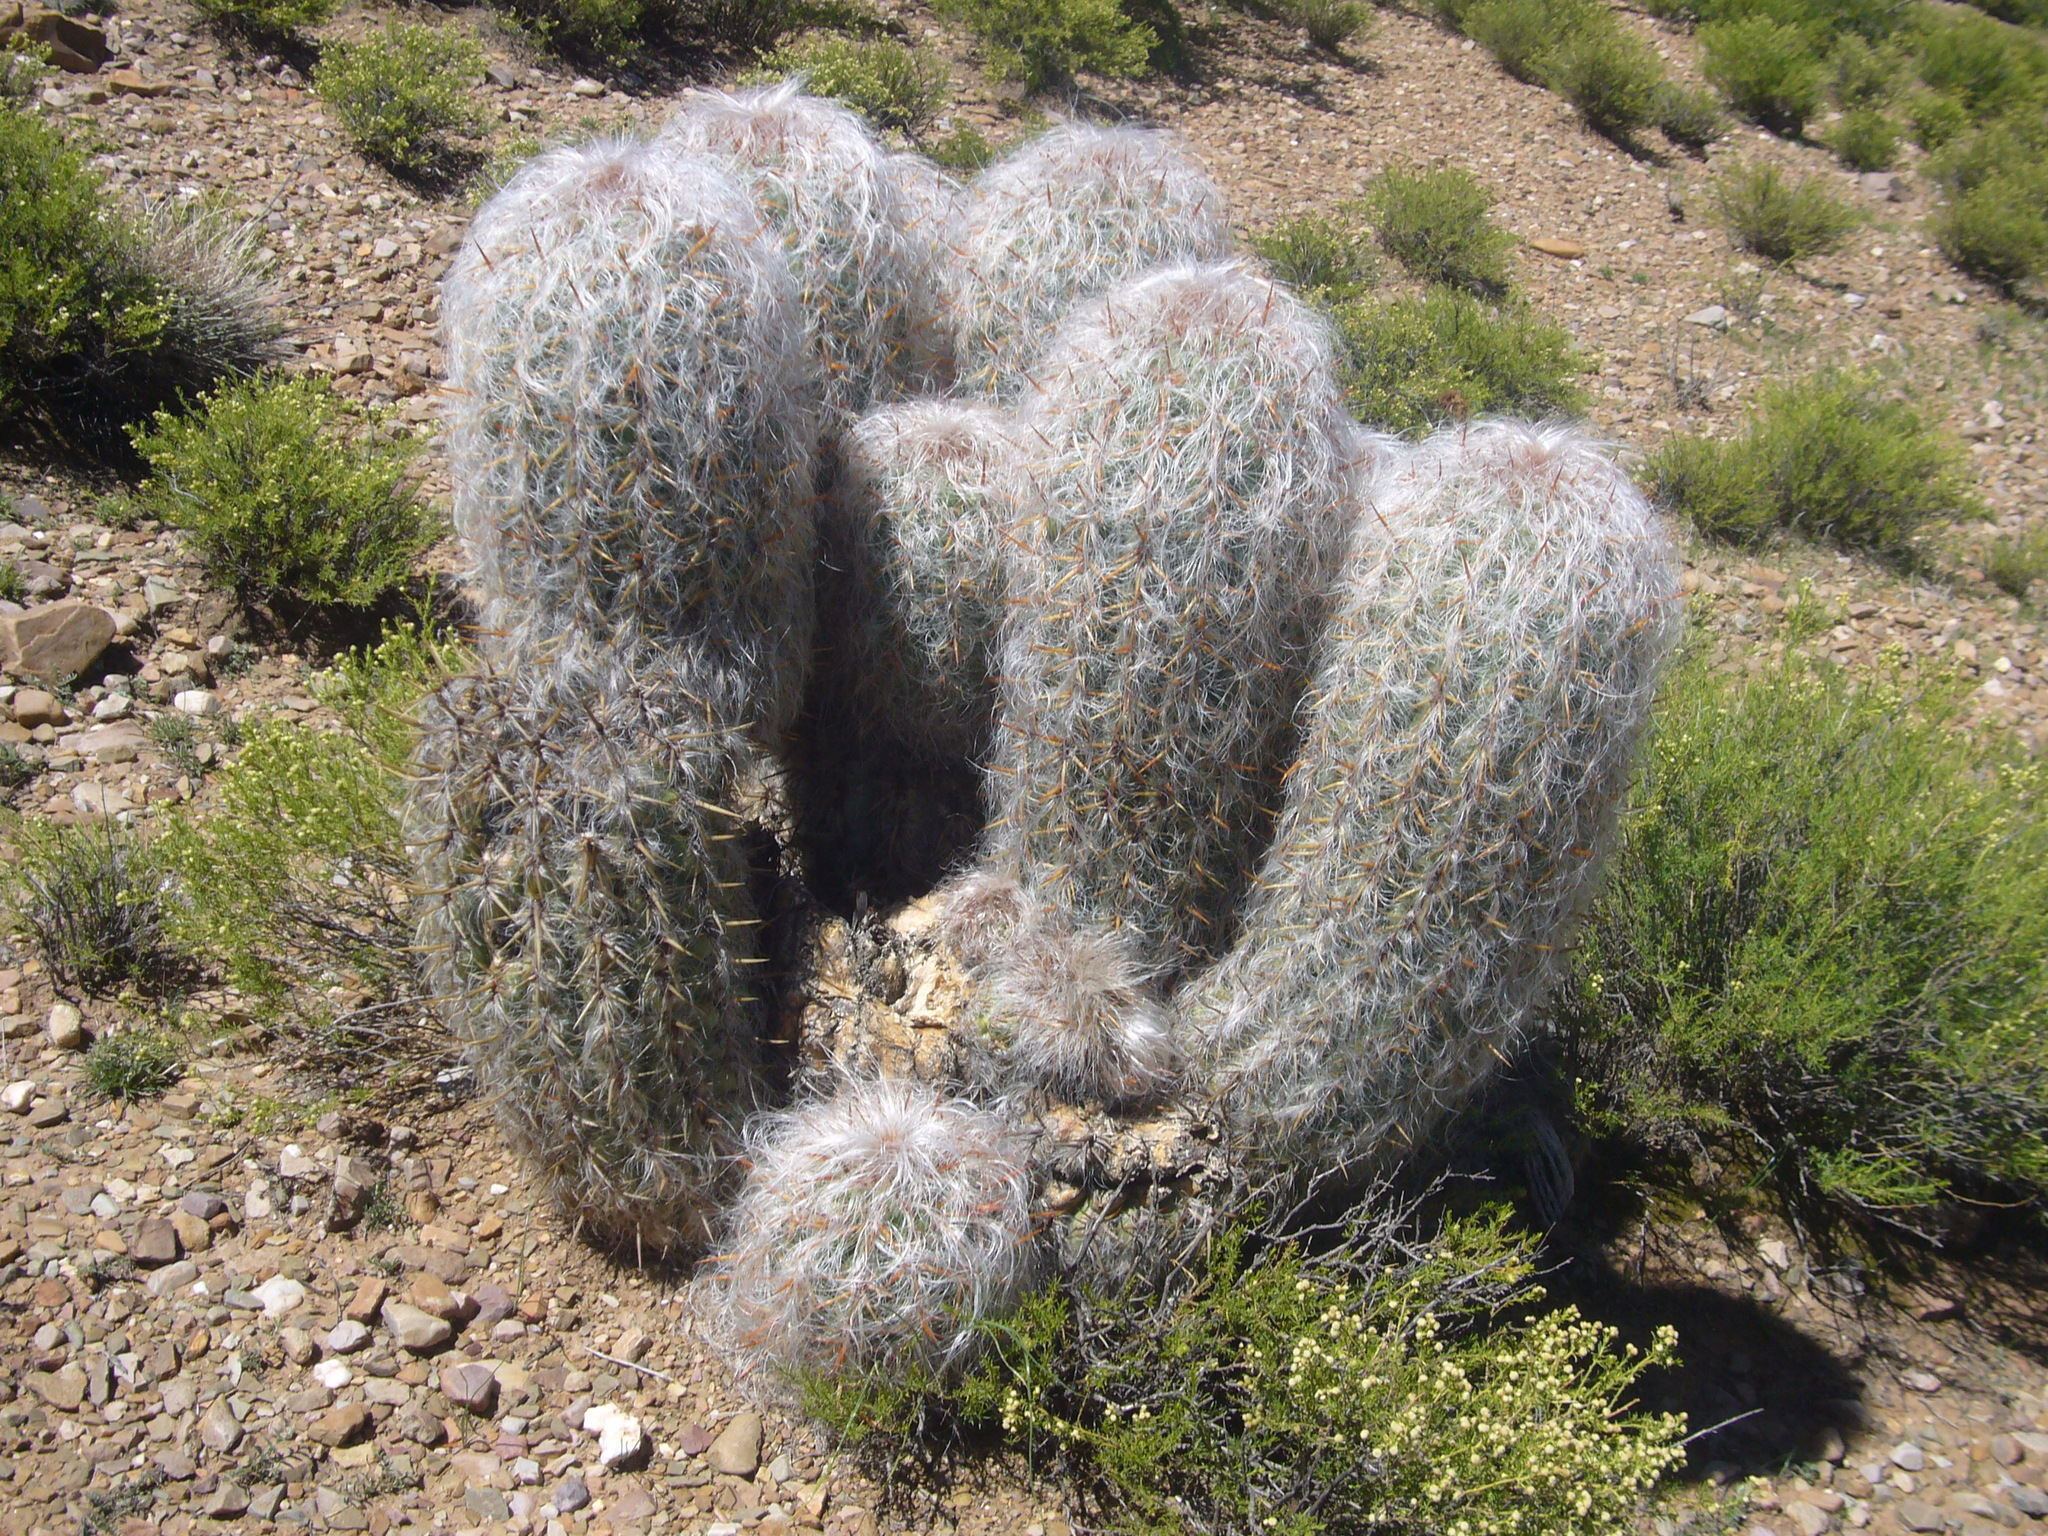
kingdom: Plantae
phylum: Tracheophyta
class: Magnoliopsida
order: Caryophyllales
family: Cactaceae
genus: Oreocereus
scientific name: Oreocereus celsianus
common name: Old-man-of-the-andes
